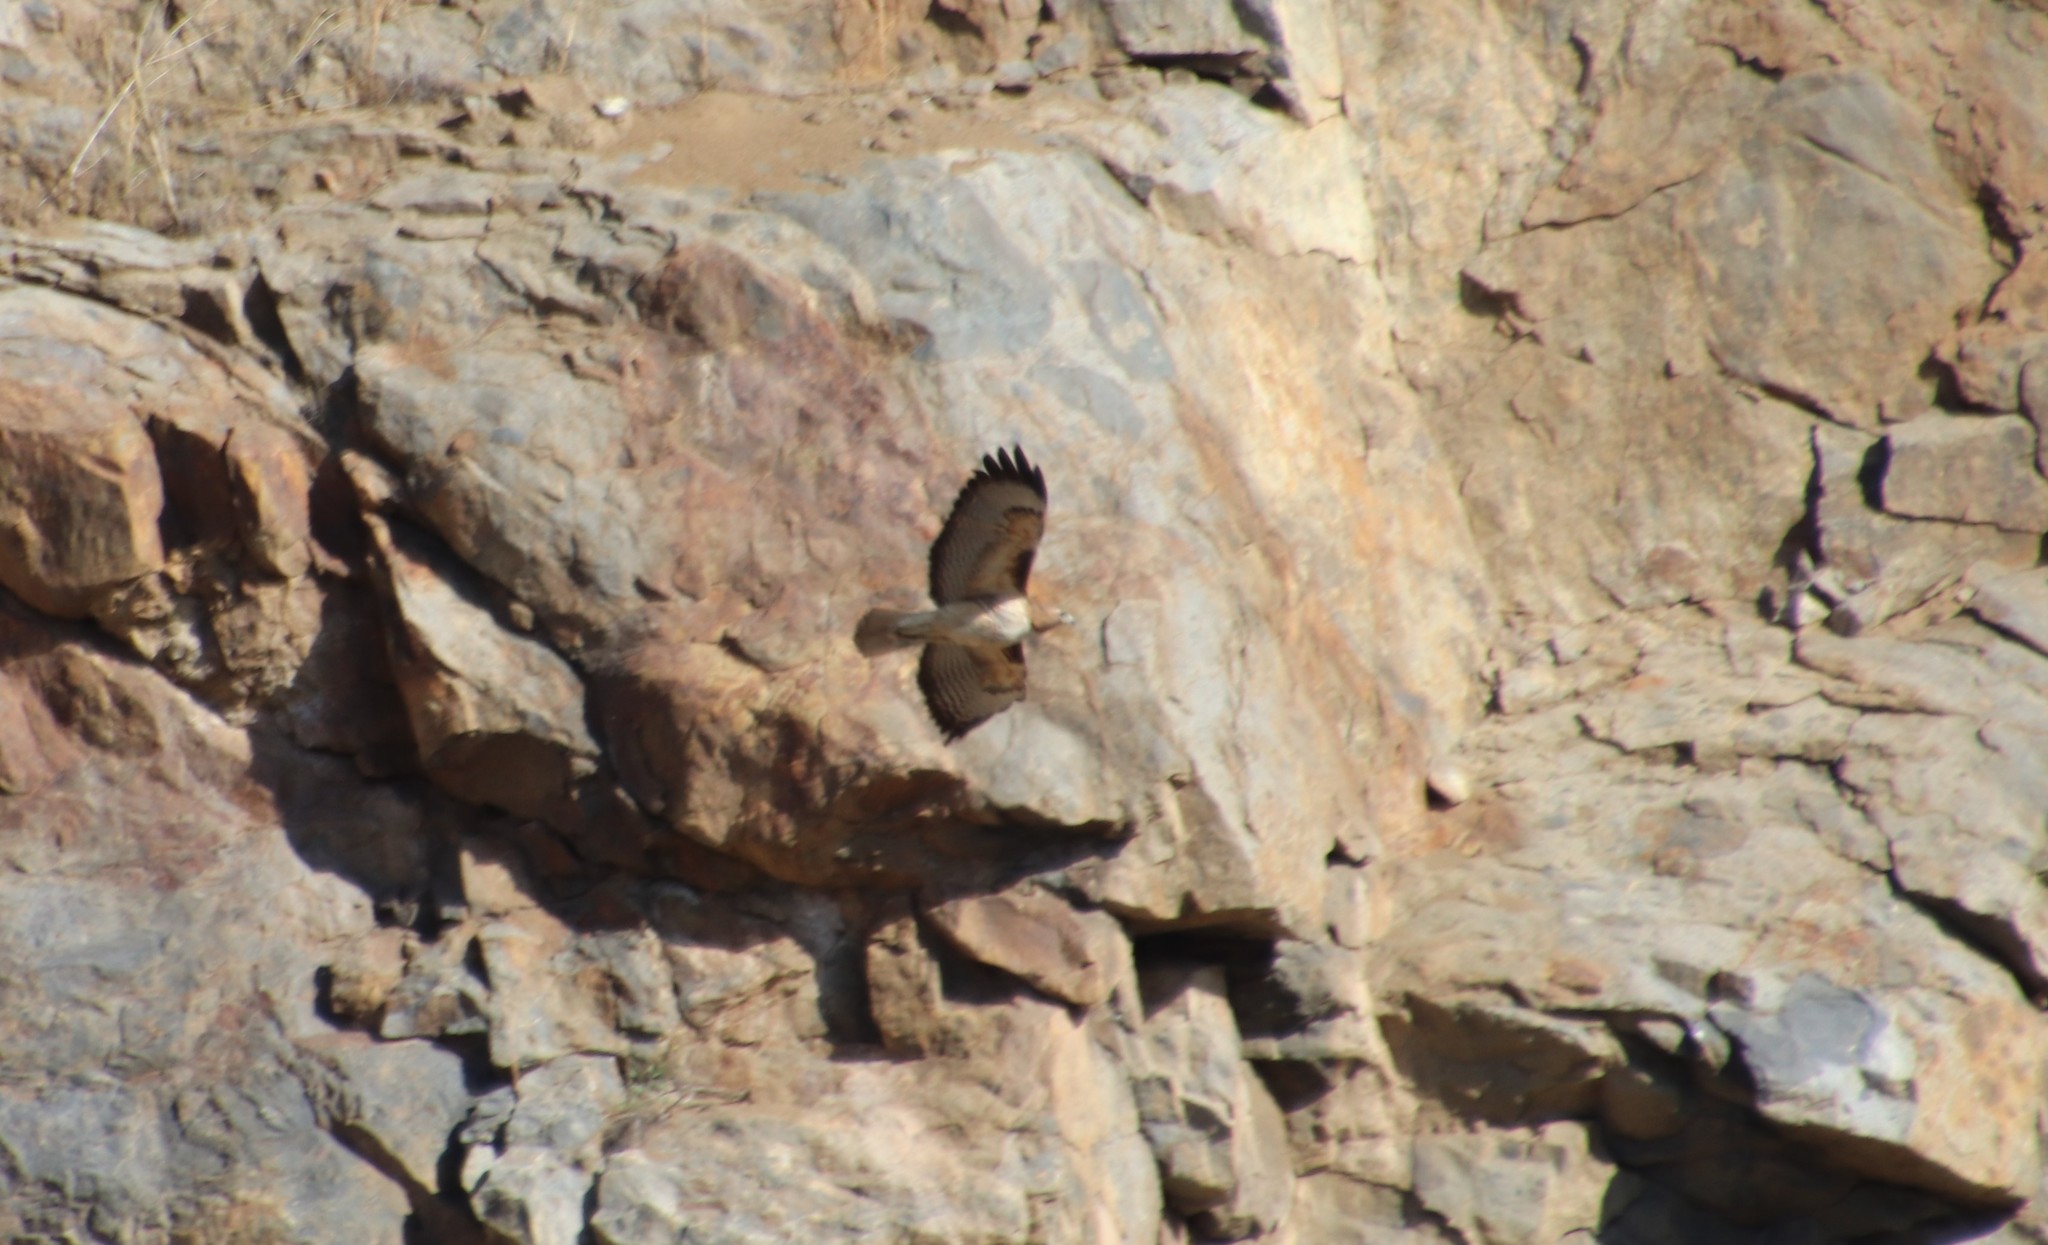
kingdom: Animalia
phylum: Chordata
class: Aves
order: Accipitriformes
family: Accipitridae
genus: Buteo
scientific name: Buteo jamaicensis
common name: Red-tailed hawk
